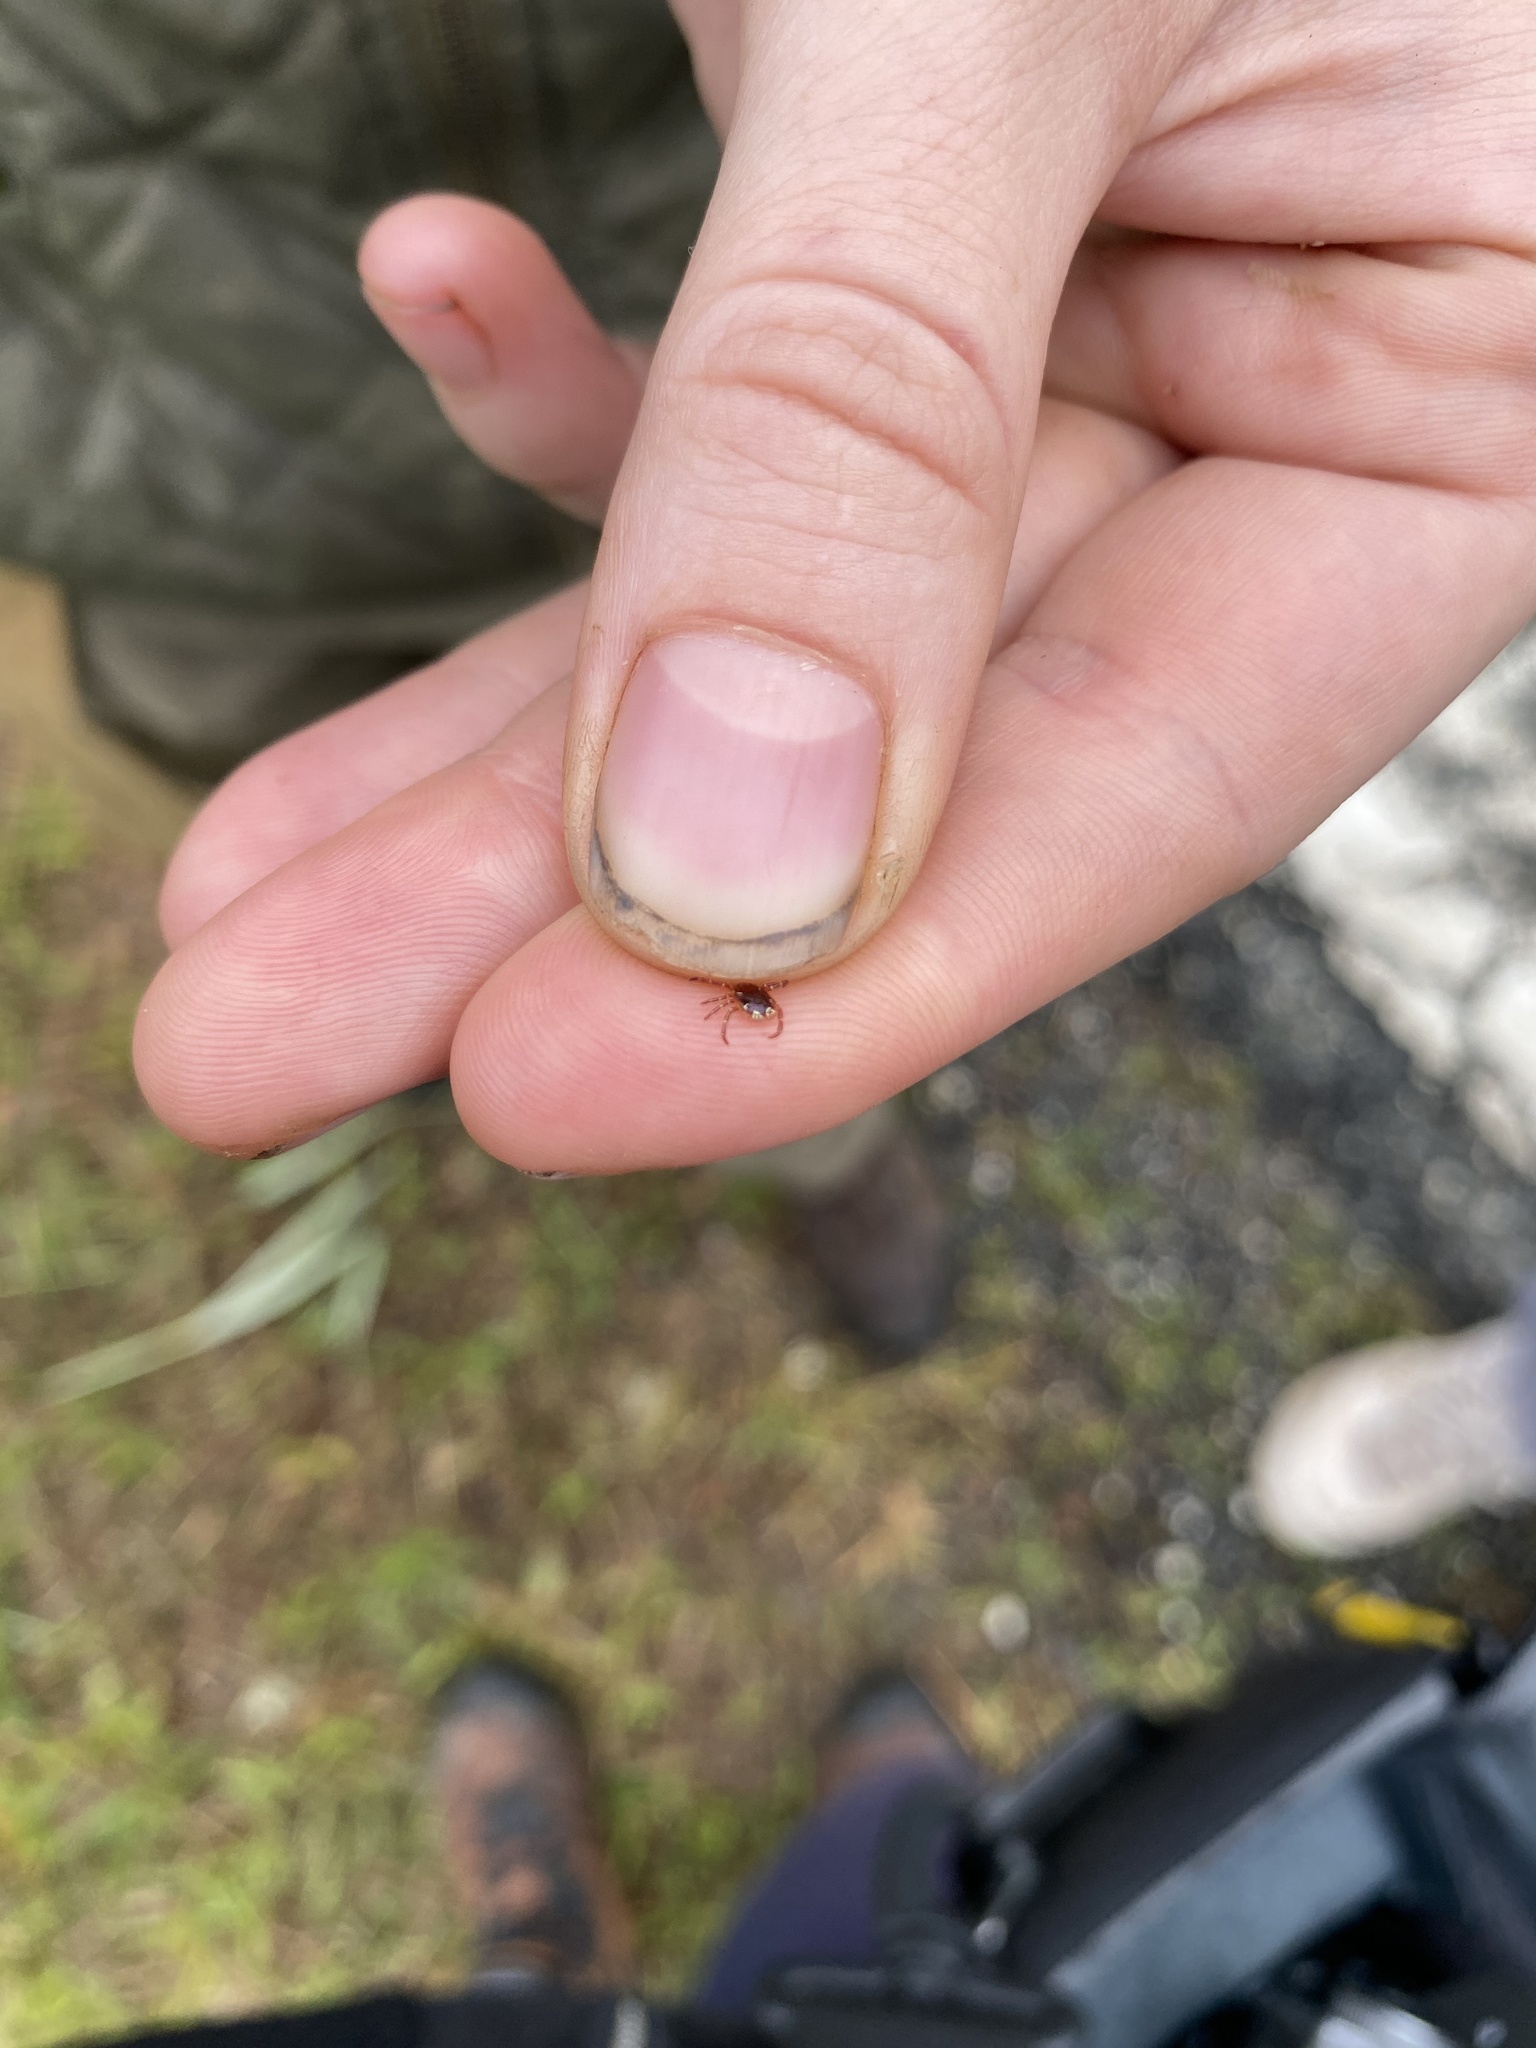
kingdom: Animalia
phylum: Arthropoda
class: Arachnida
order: Ixodida
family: Ixodidae
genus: Amblyomma
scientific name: Amblyomma americanum
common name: Lone star tick
